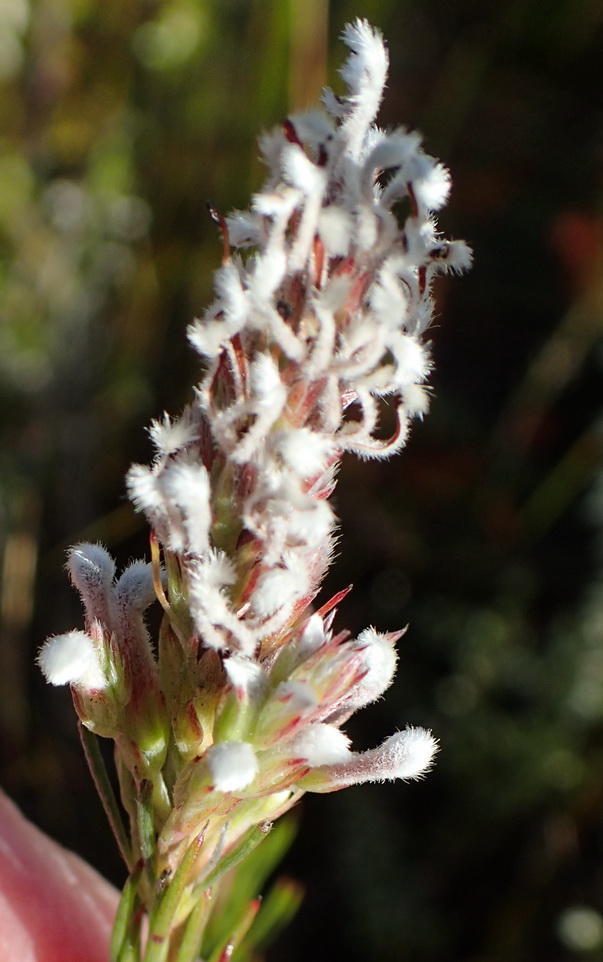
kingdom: Plantae
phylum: Tracheophyta
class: Magnoliopsida
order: Proteales
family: Proteaceae
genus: Spatalla
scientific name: Spatalla barbigera
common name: Fine-leaf spoon
